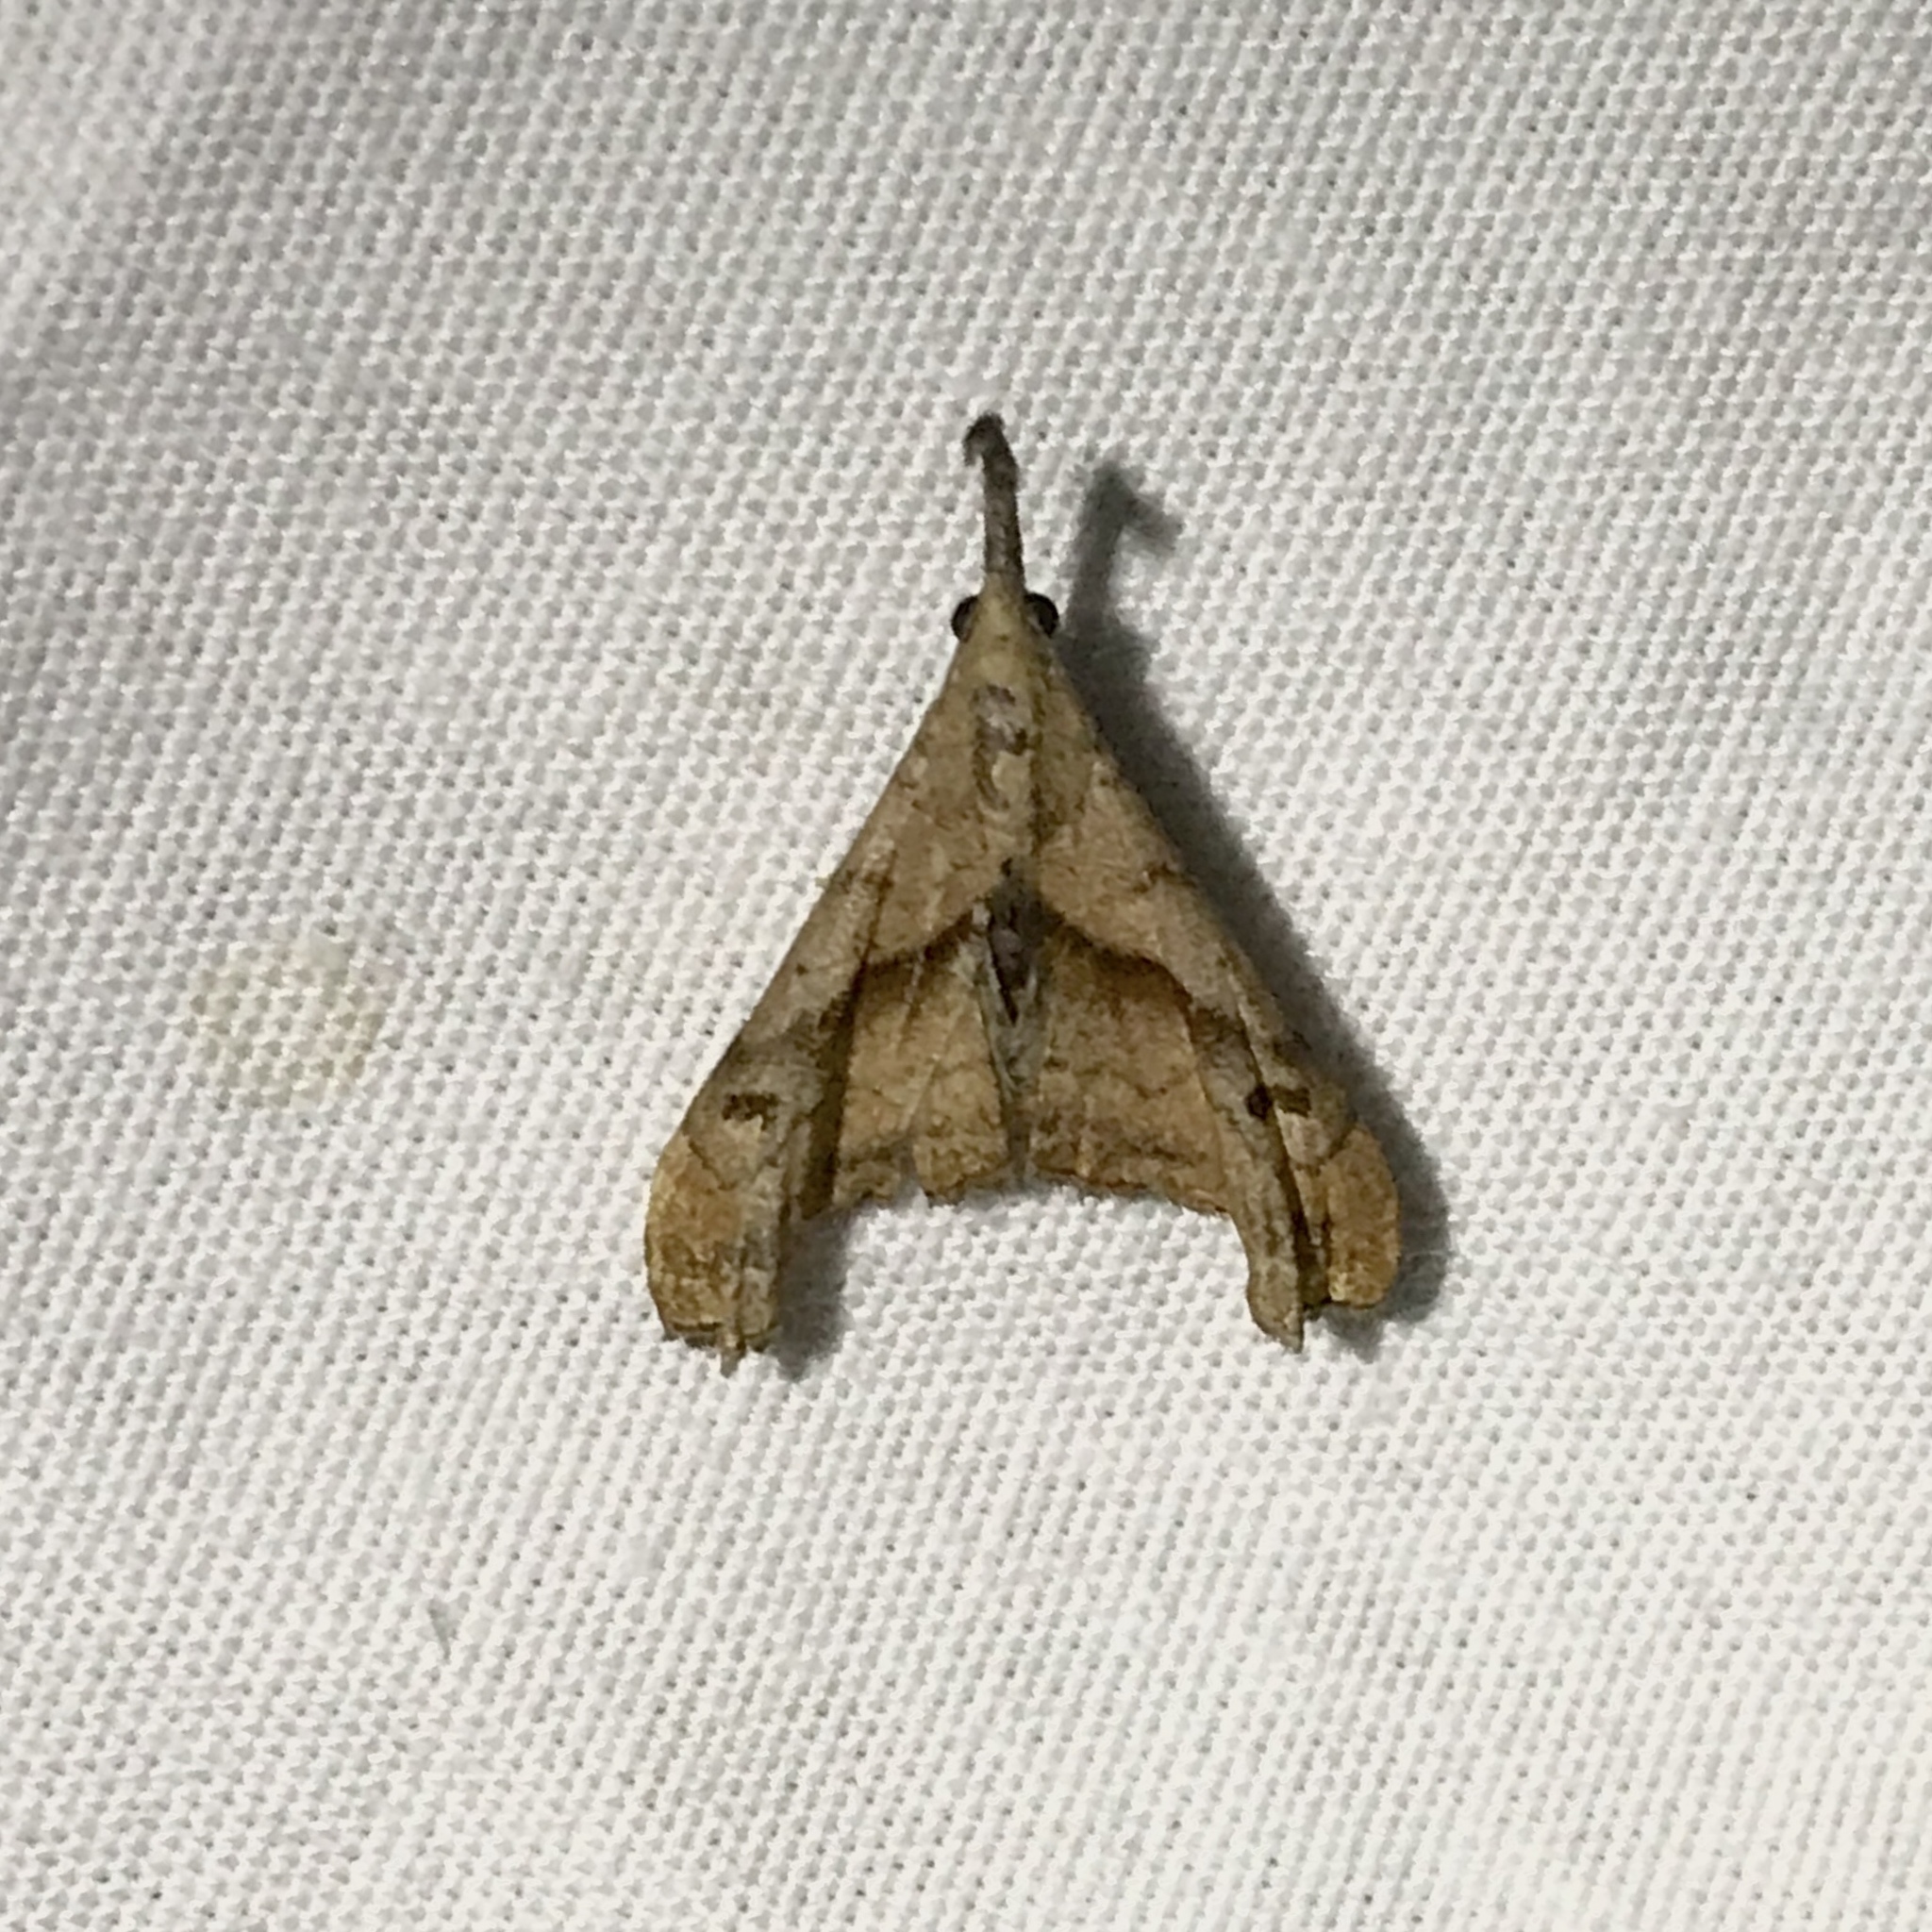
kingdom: Animalia
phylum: Arthropoda
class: Insecta
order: Lepidoptera
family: Erebidae
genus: Palthis
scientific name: Palthis angulalis
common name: Dark-spotted palthis moth
